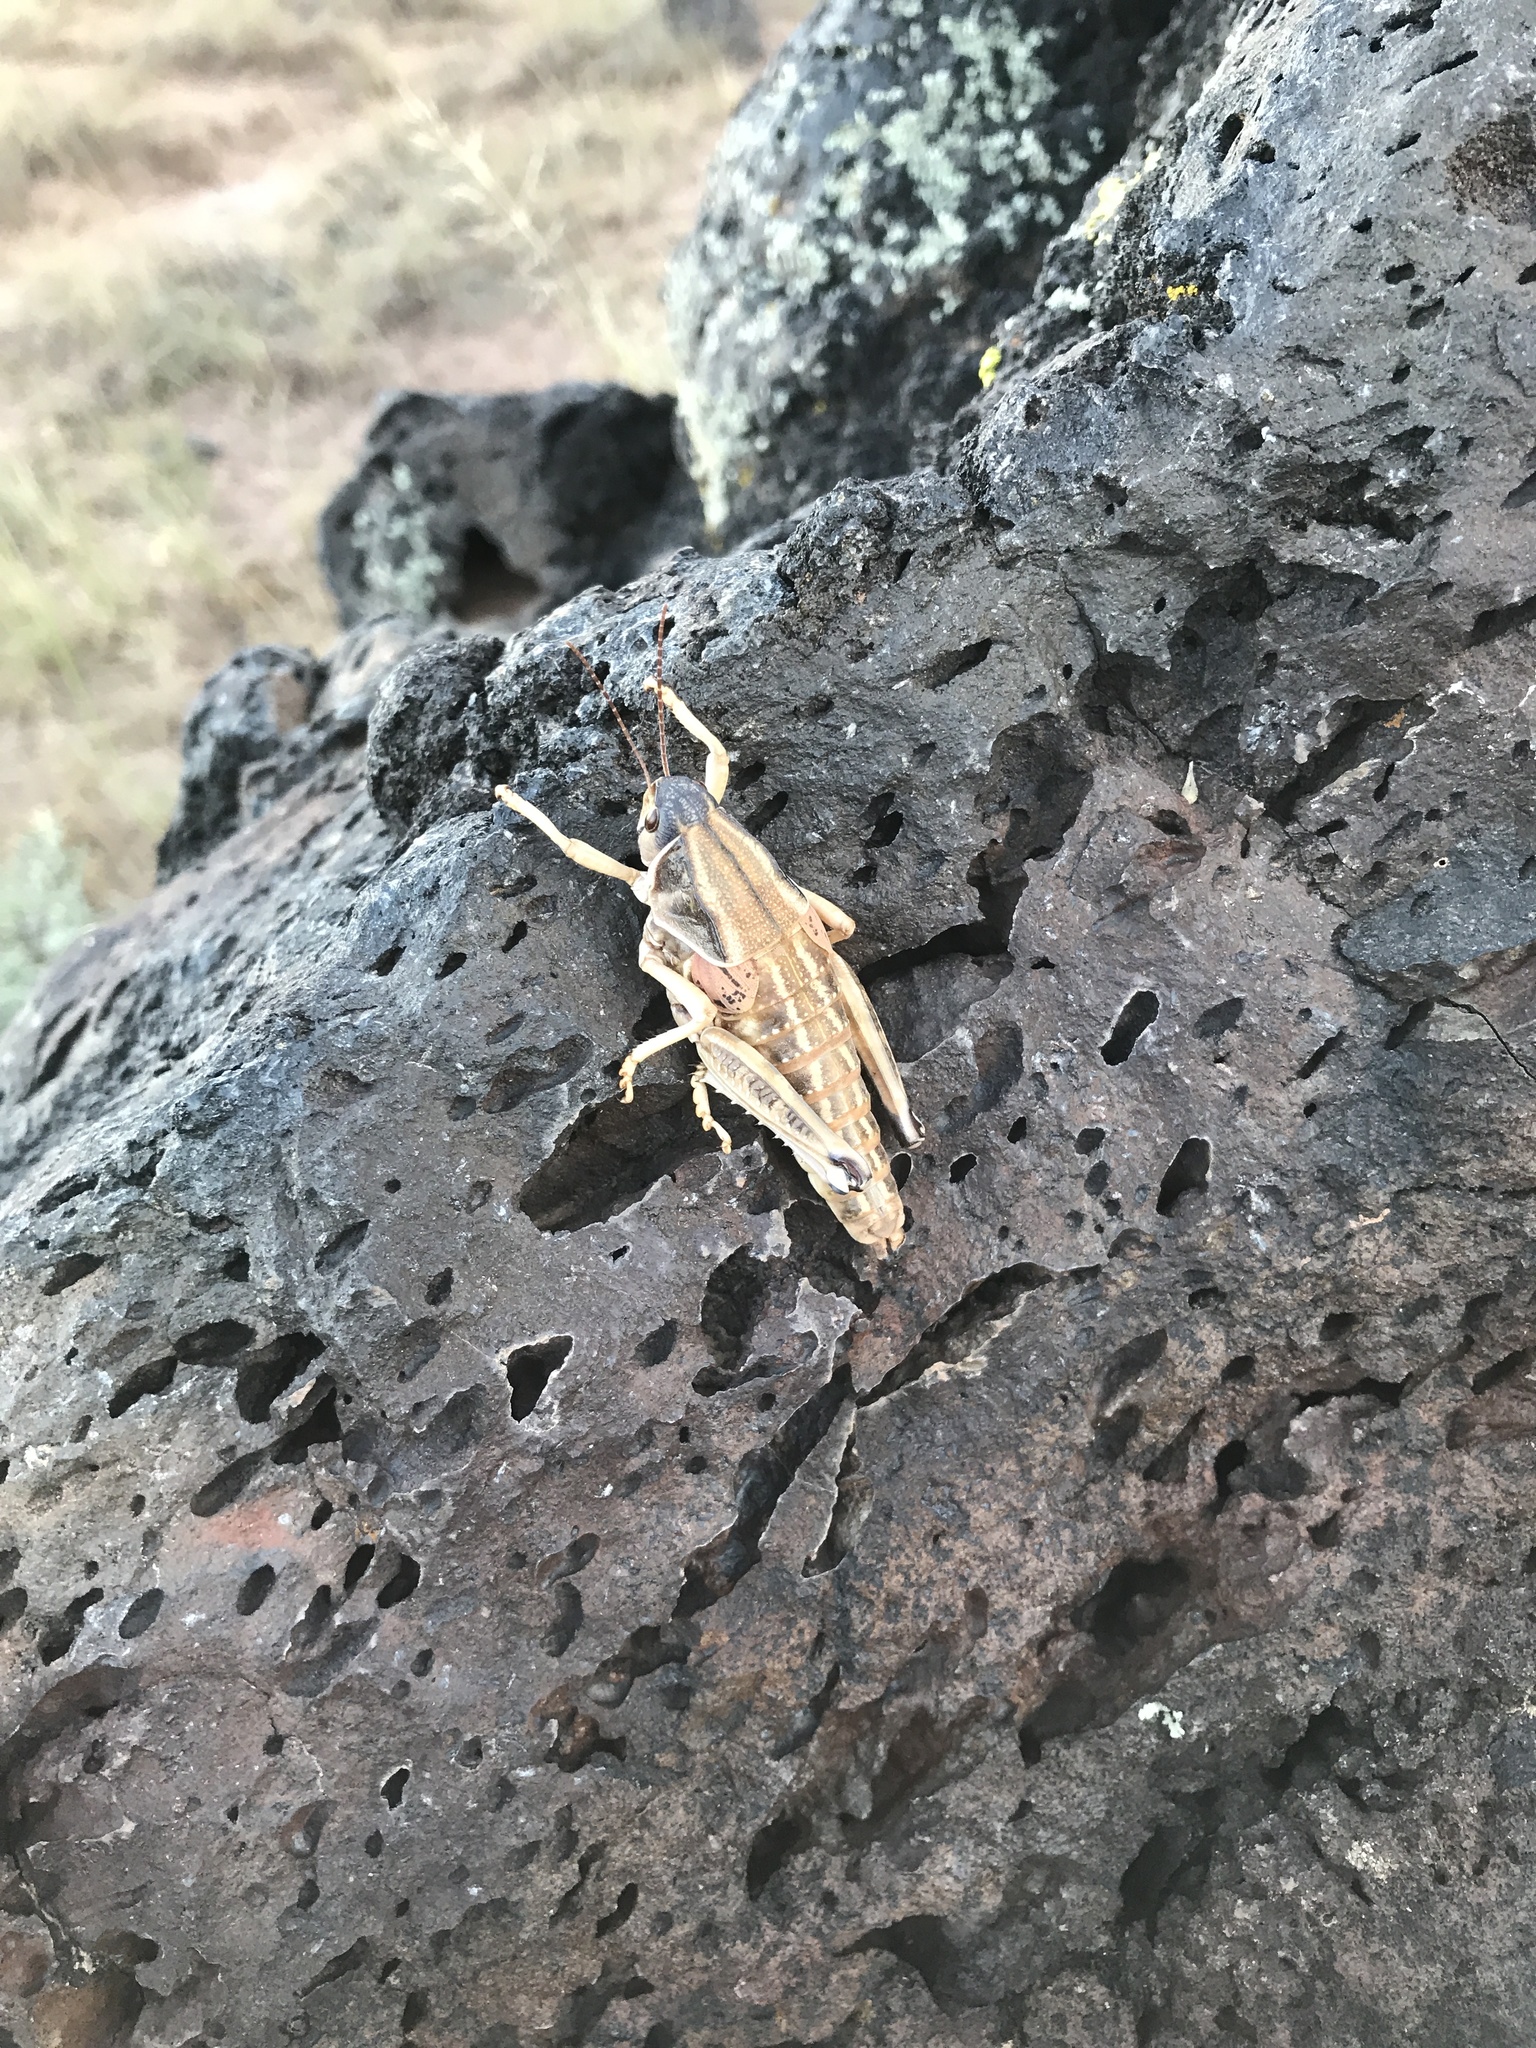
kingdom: Animalia
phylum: Arthropoda
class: Insecta
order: Orthoptera
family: Romaleidae
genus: Brachystola
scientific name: Brachystola magna
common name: Plains lubber grasshopper
